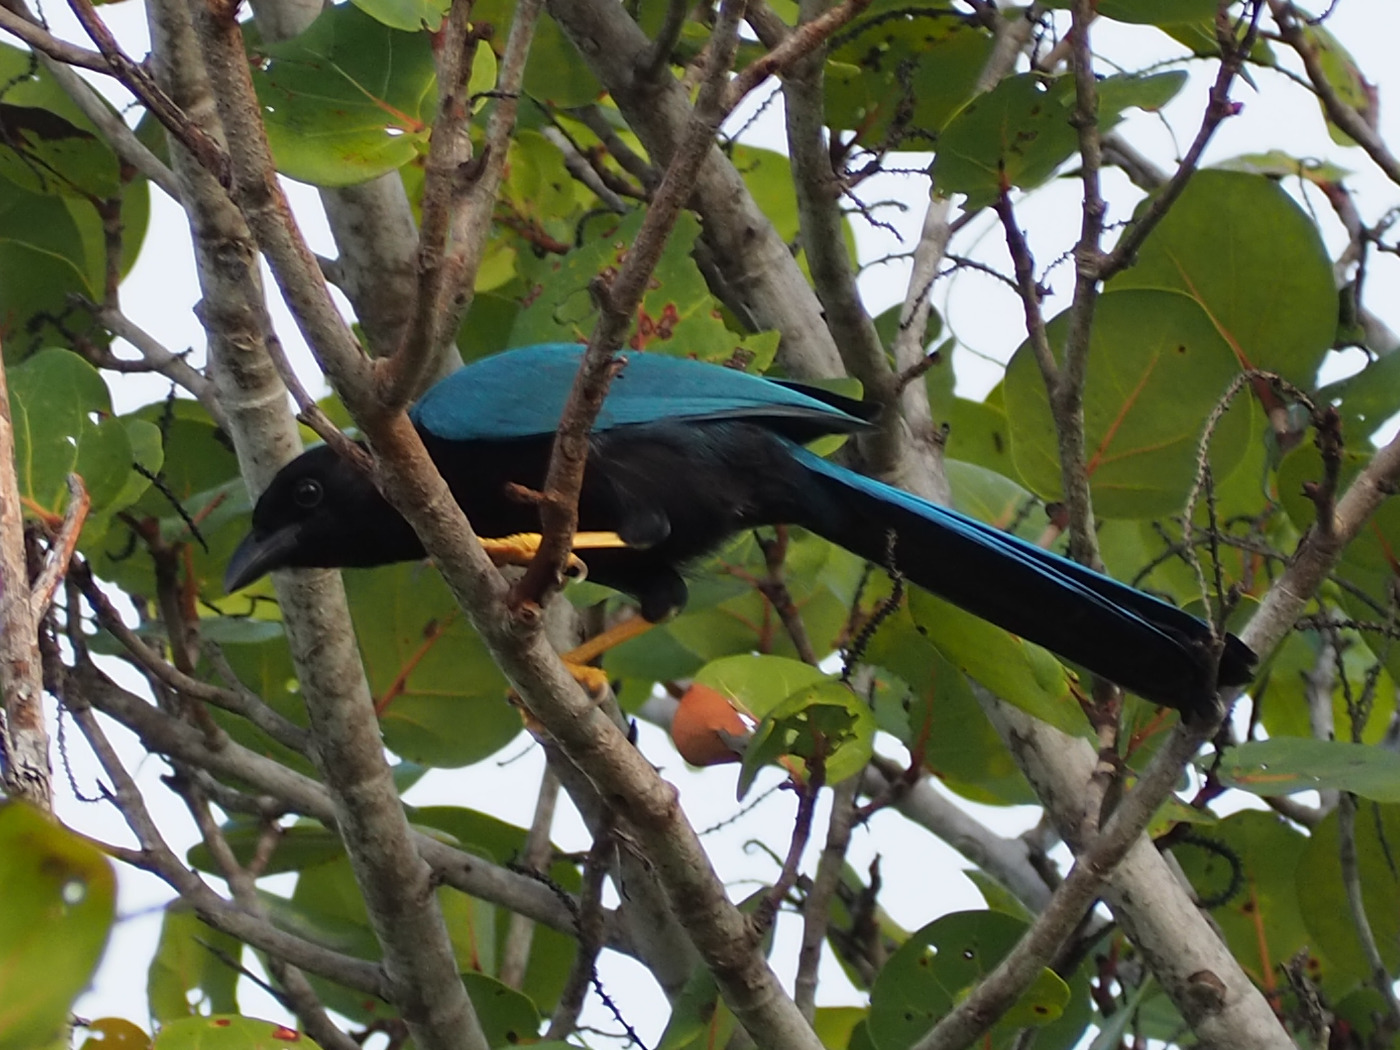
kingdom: Animalia
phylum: Chordata
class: Aves
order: Passeriformes
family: Corvidae
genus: Cyanocorax
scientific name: Cyanocorax yucatanicus
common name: Yucatan jay
